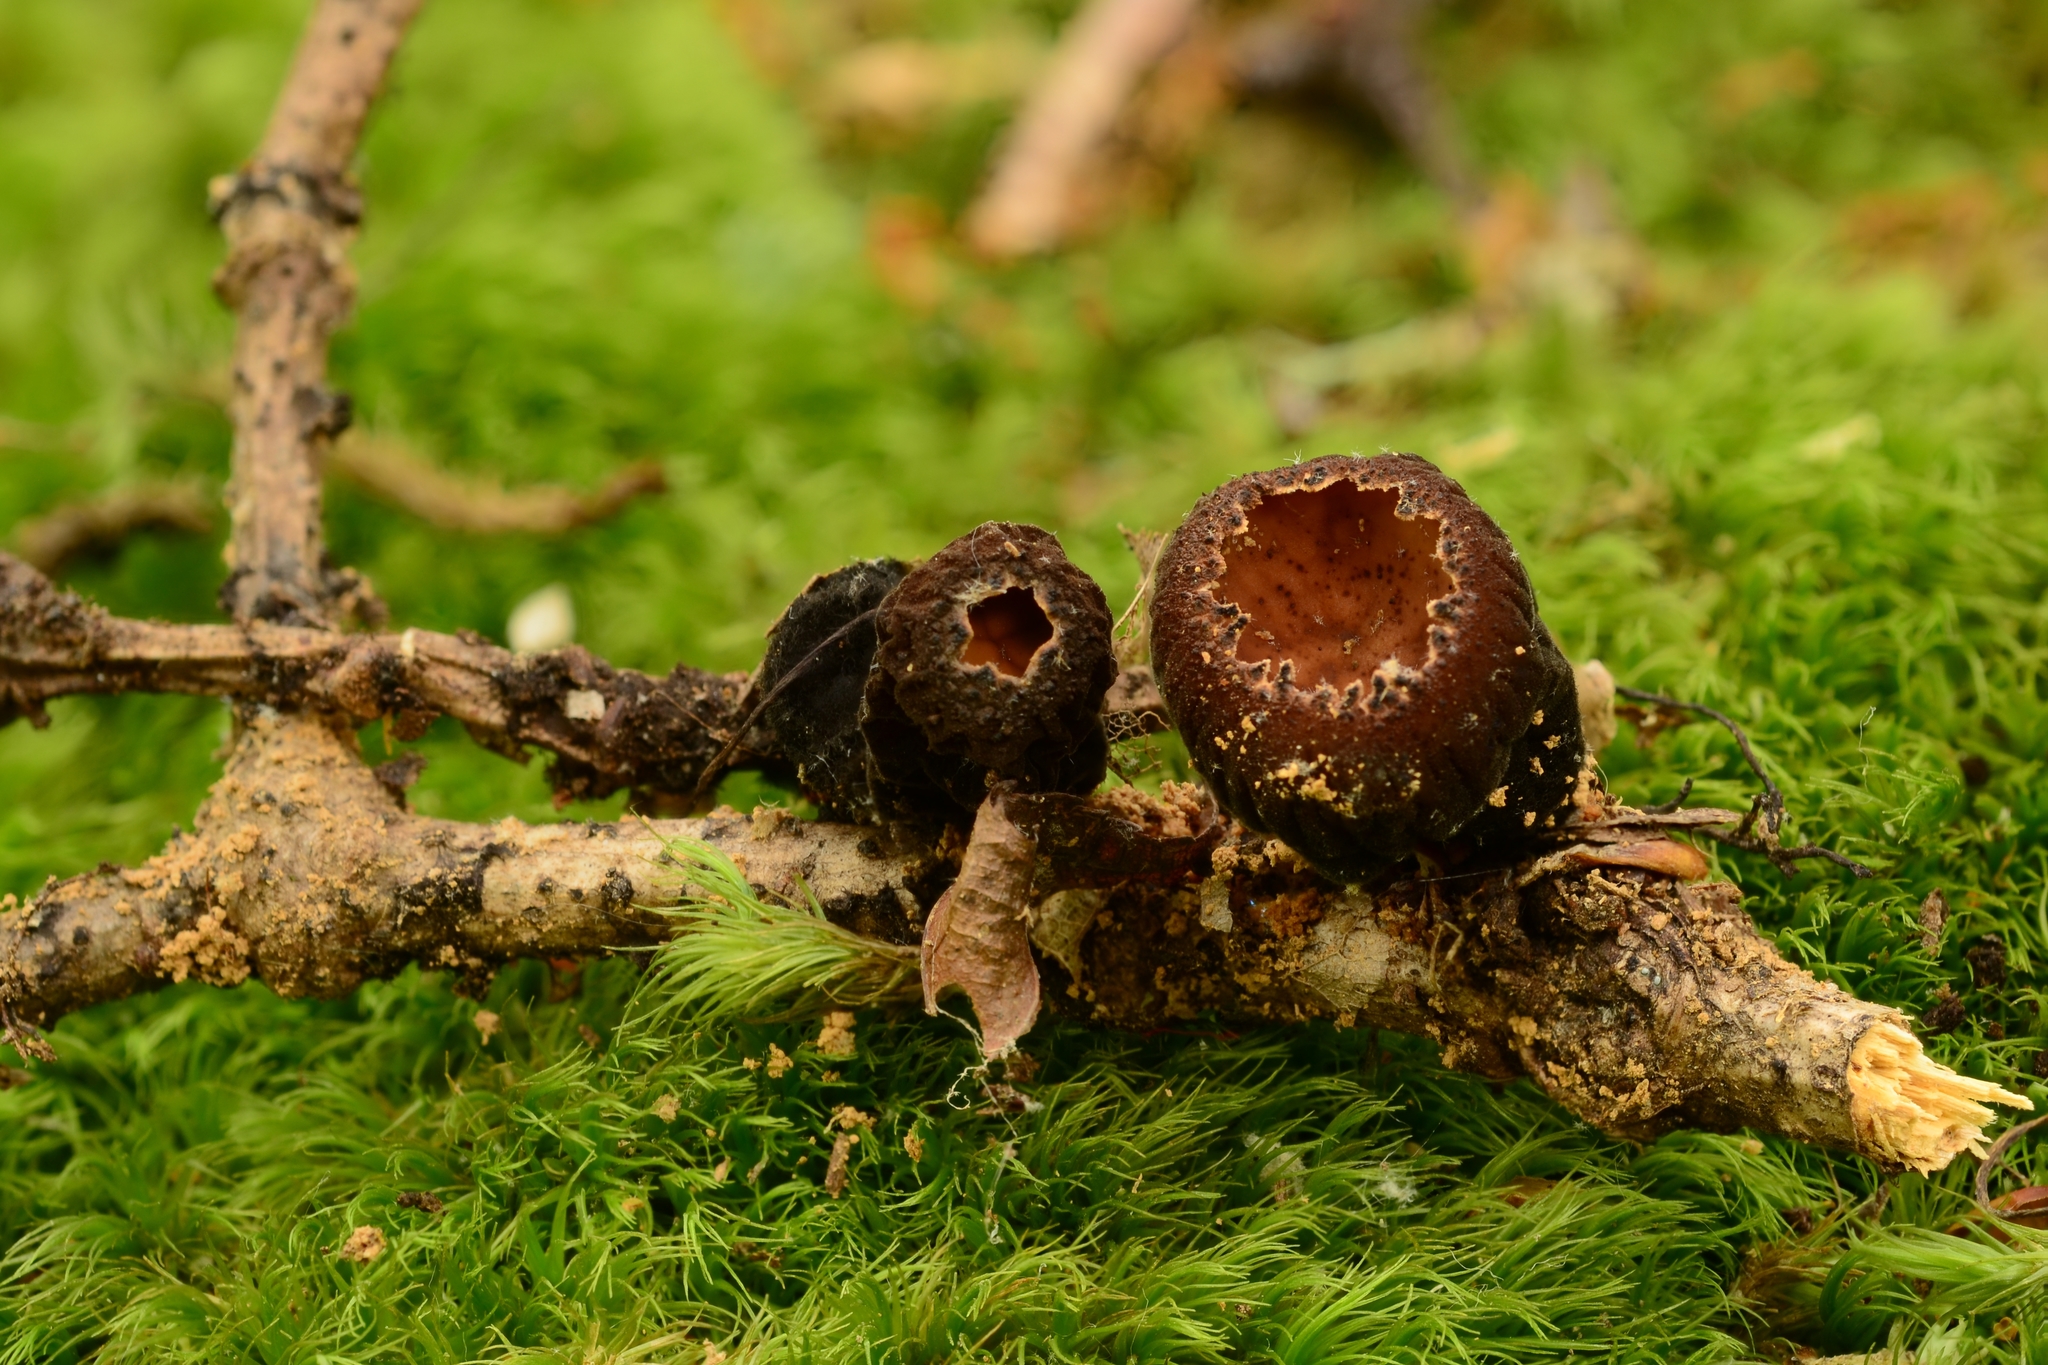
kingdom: Fungi
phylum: Ascomycota
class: Pezizomycetes
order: Pezizales
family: Sarcosomataceae
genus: Galiella
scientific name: Galiella rufa
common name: Hairy rubber cup
